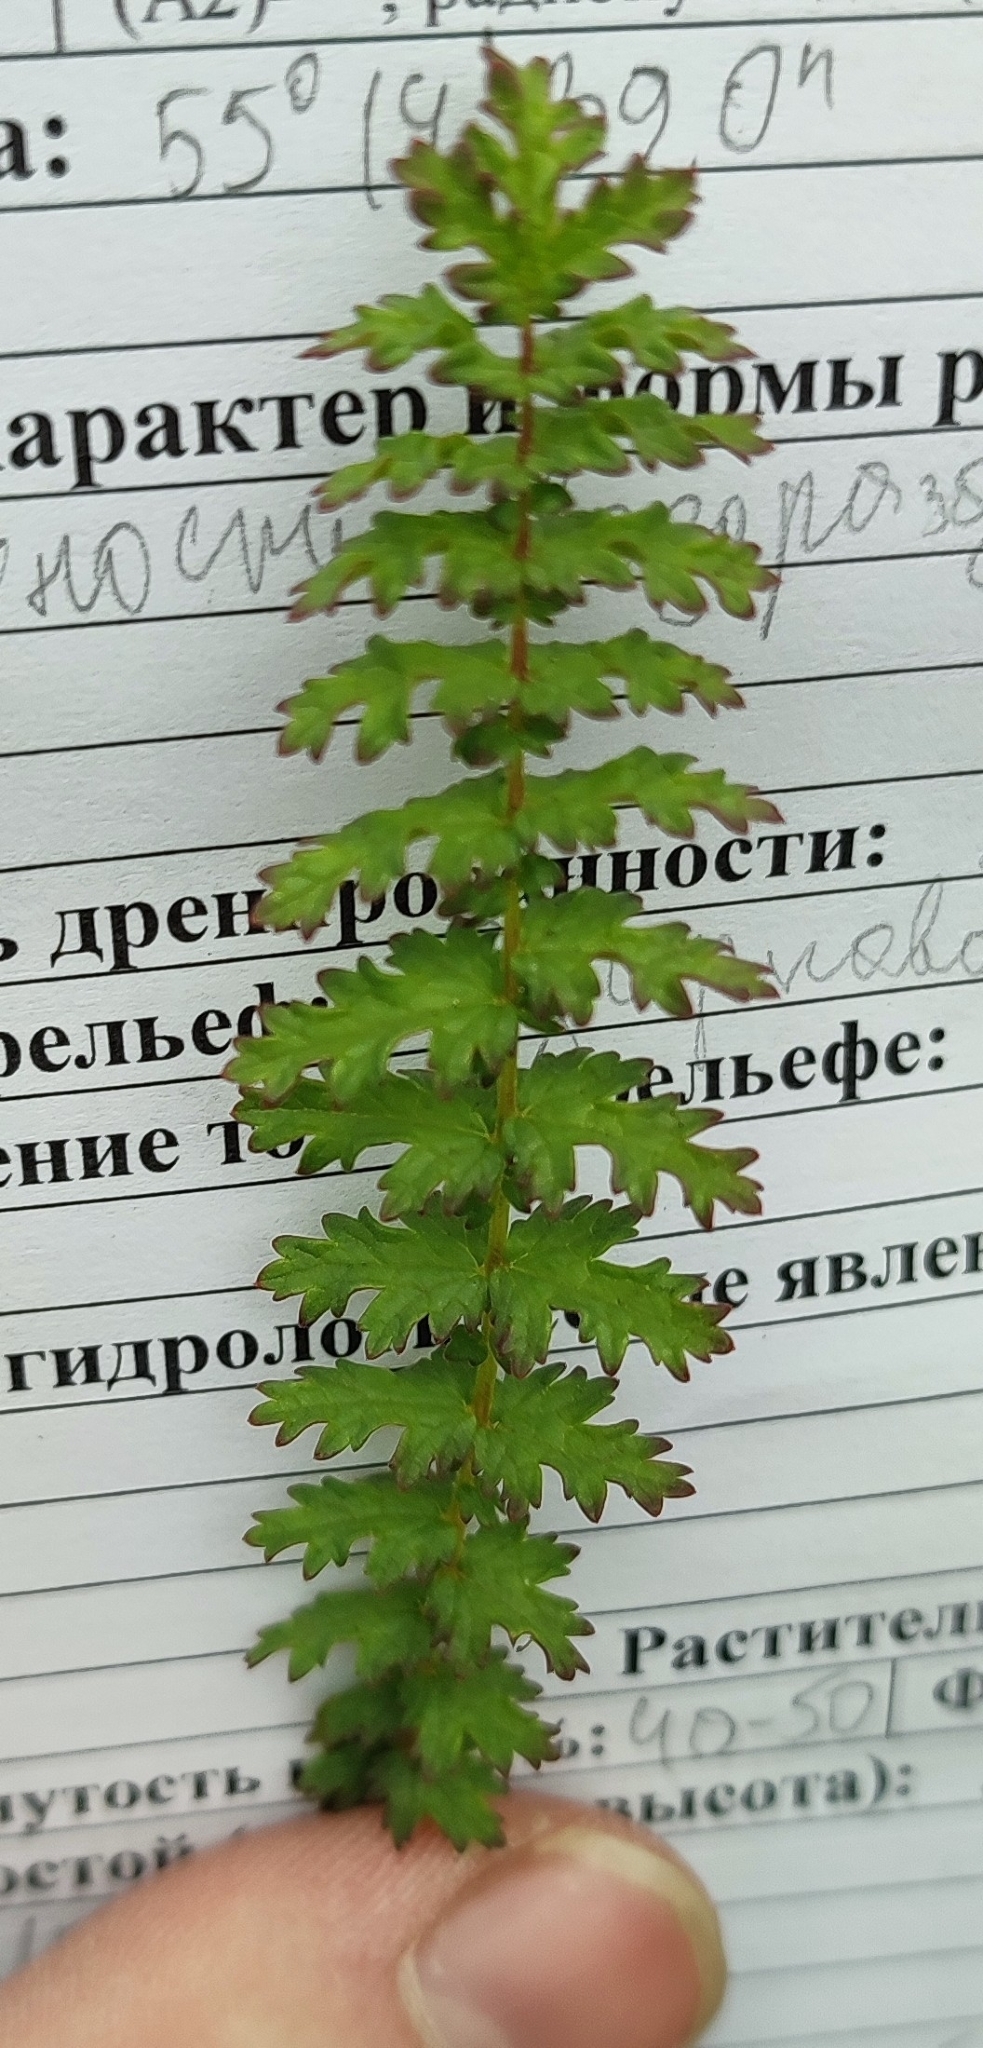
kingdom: Plantae
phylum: Tracheophyta
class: Magnoliopsida
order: Rosales
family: Rosaceae
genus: Filipendula
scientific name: Filipendula vulgaris
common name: Dropwort
